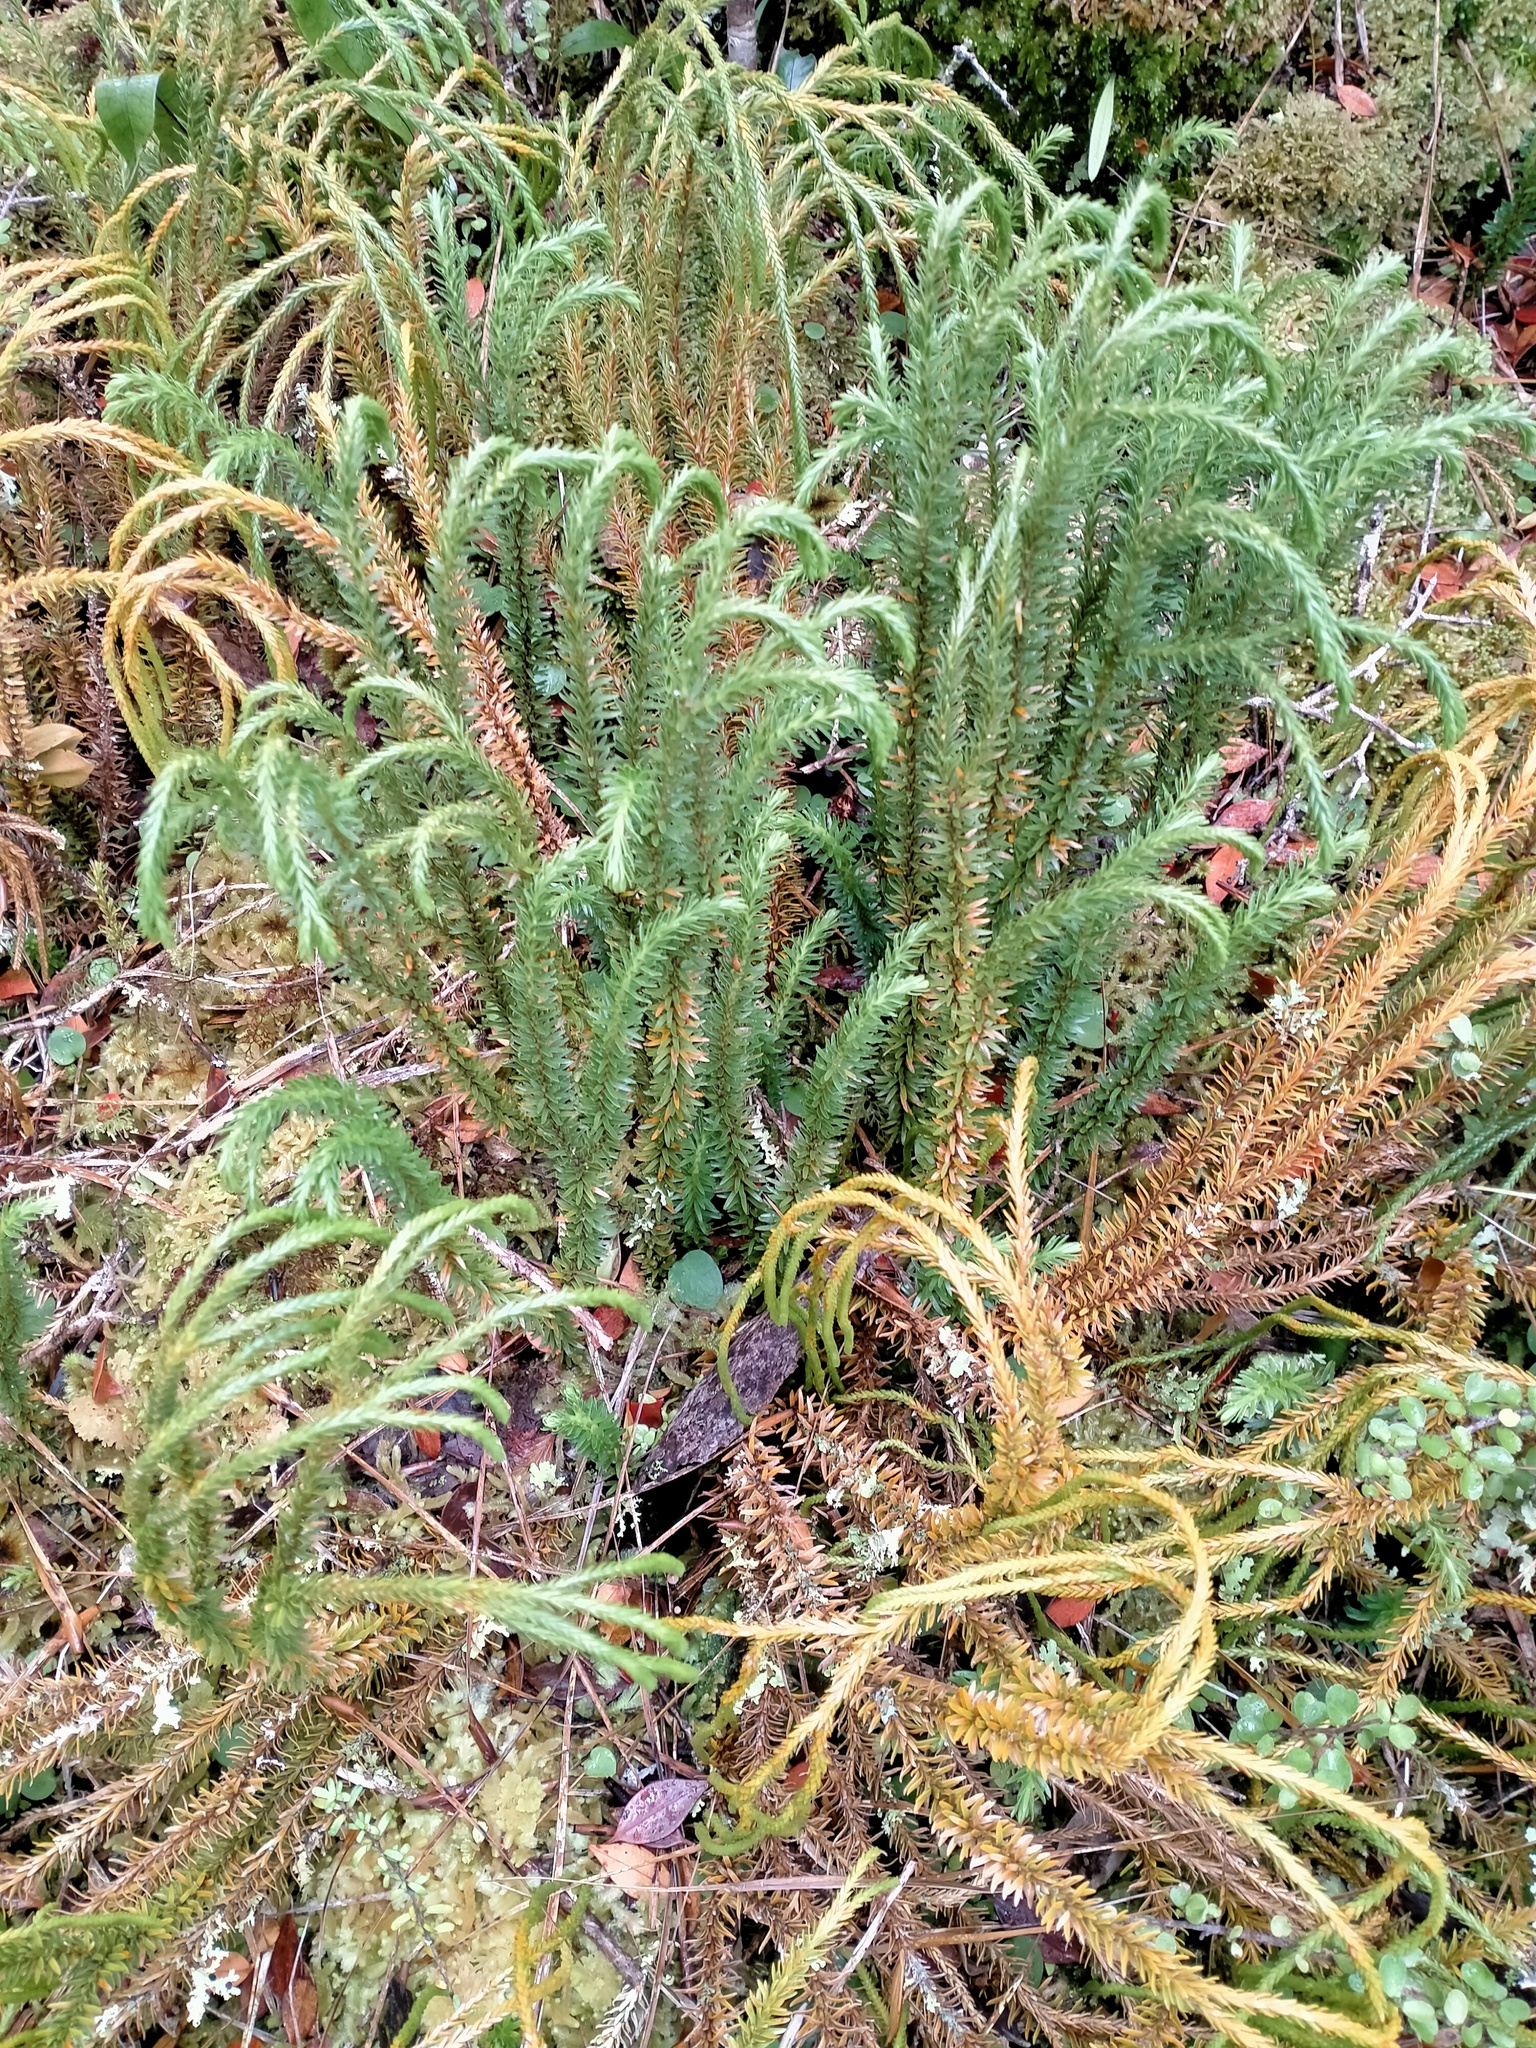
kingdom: Plantae
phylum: Tracheophyta
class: Lycopodiopsida
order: Lycopodiales
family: Lycopodiaceae
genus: Phlegmariurus
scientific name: Phlegmariurus varius
